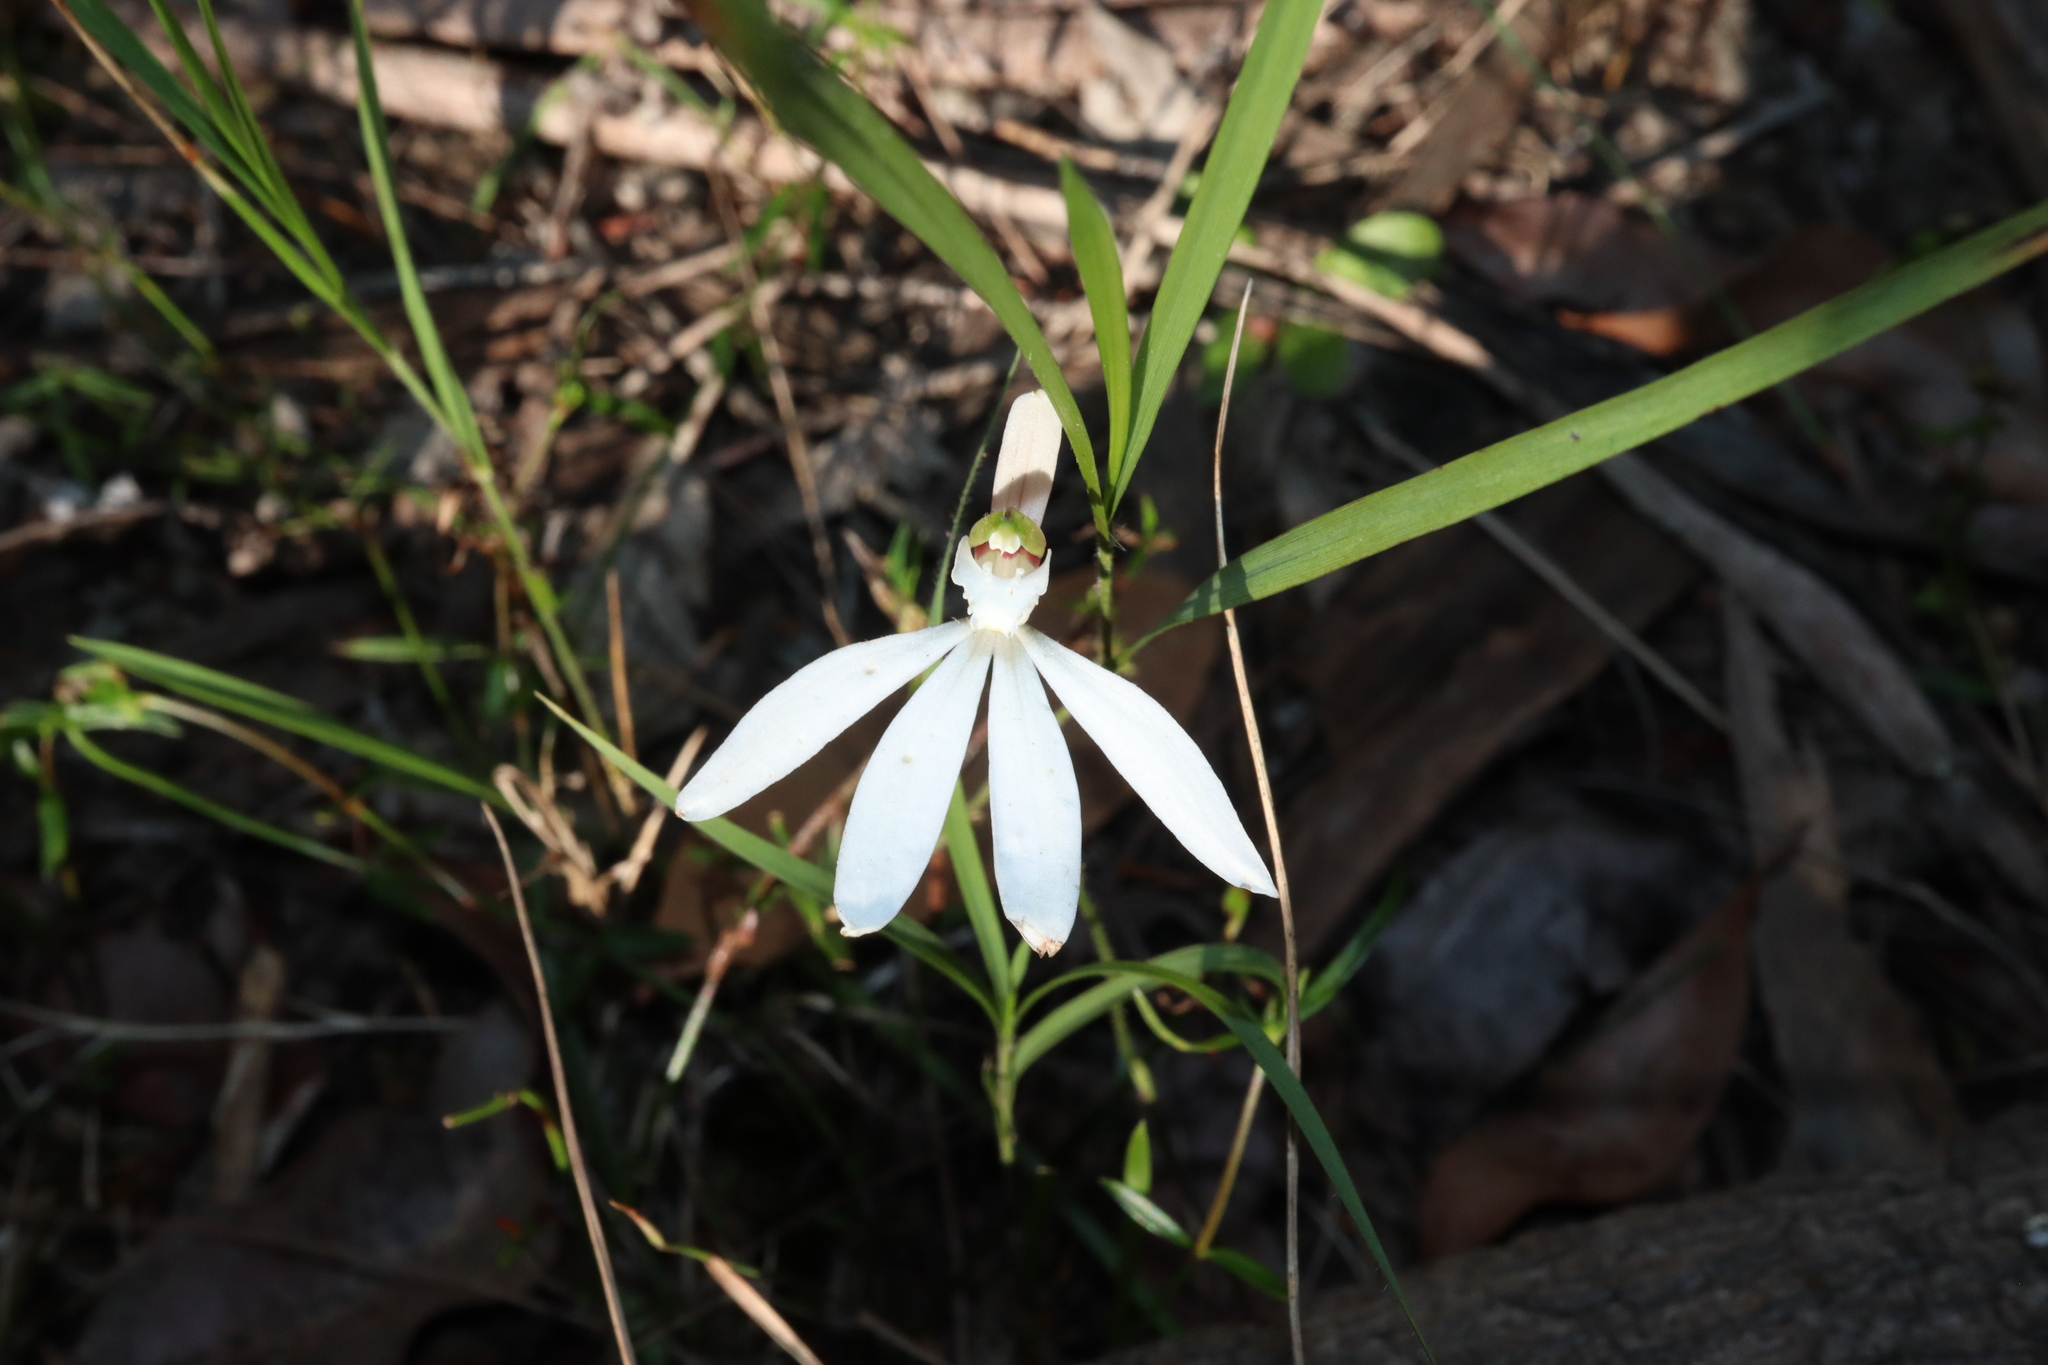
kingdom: Plantae
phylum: Tracheophyta
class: Liliopsida
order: Asparagales
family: Orchidaceae
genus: Caladenia
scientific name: Caladenia catenata
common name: White caladenia
